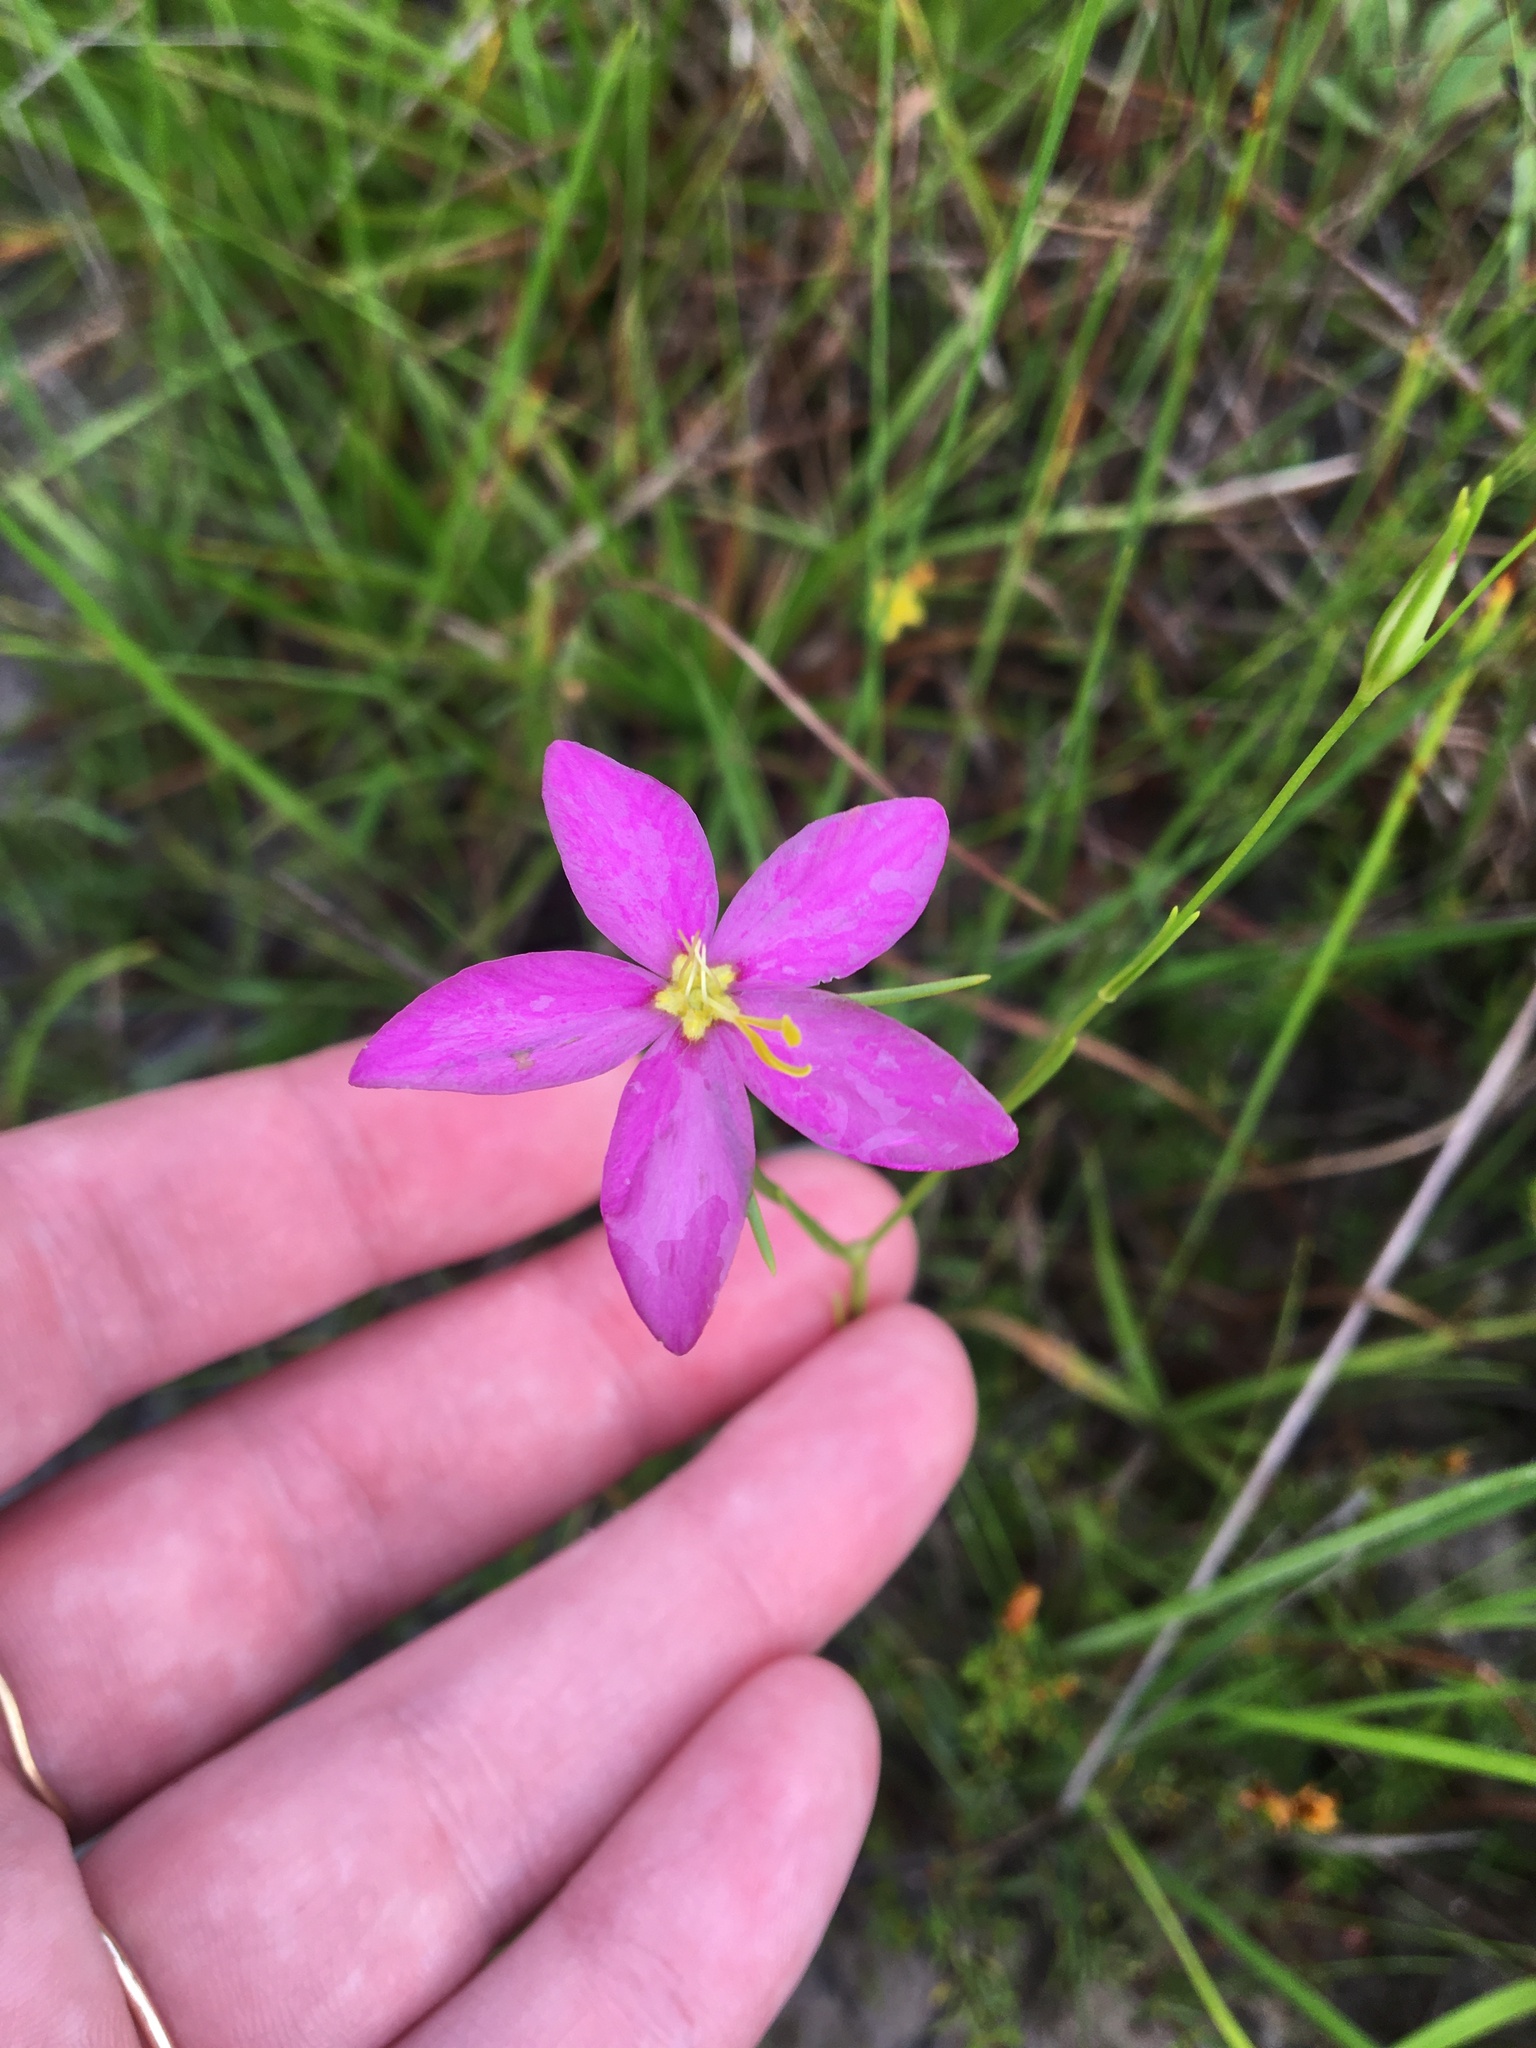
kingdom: Plantae
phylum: Tracheophyta
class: Magnoliopsida
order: Gentianales
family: Gentianaceae
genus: Sabatia
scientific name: Sabatia campanulata
